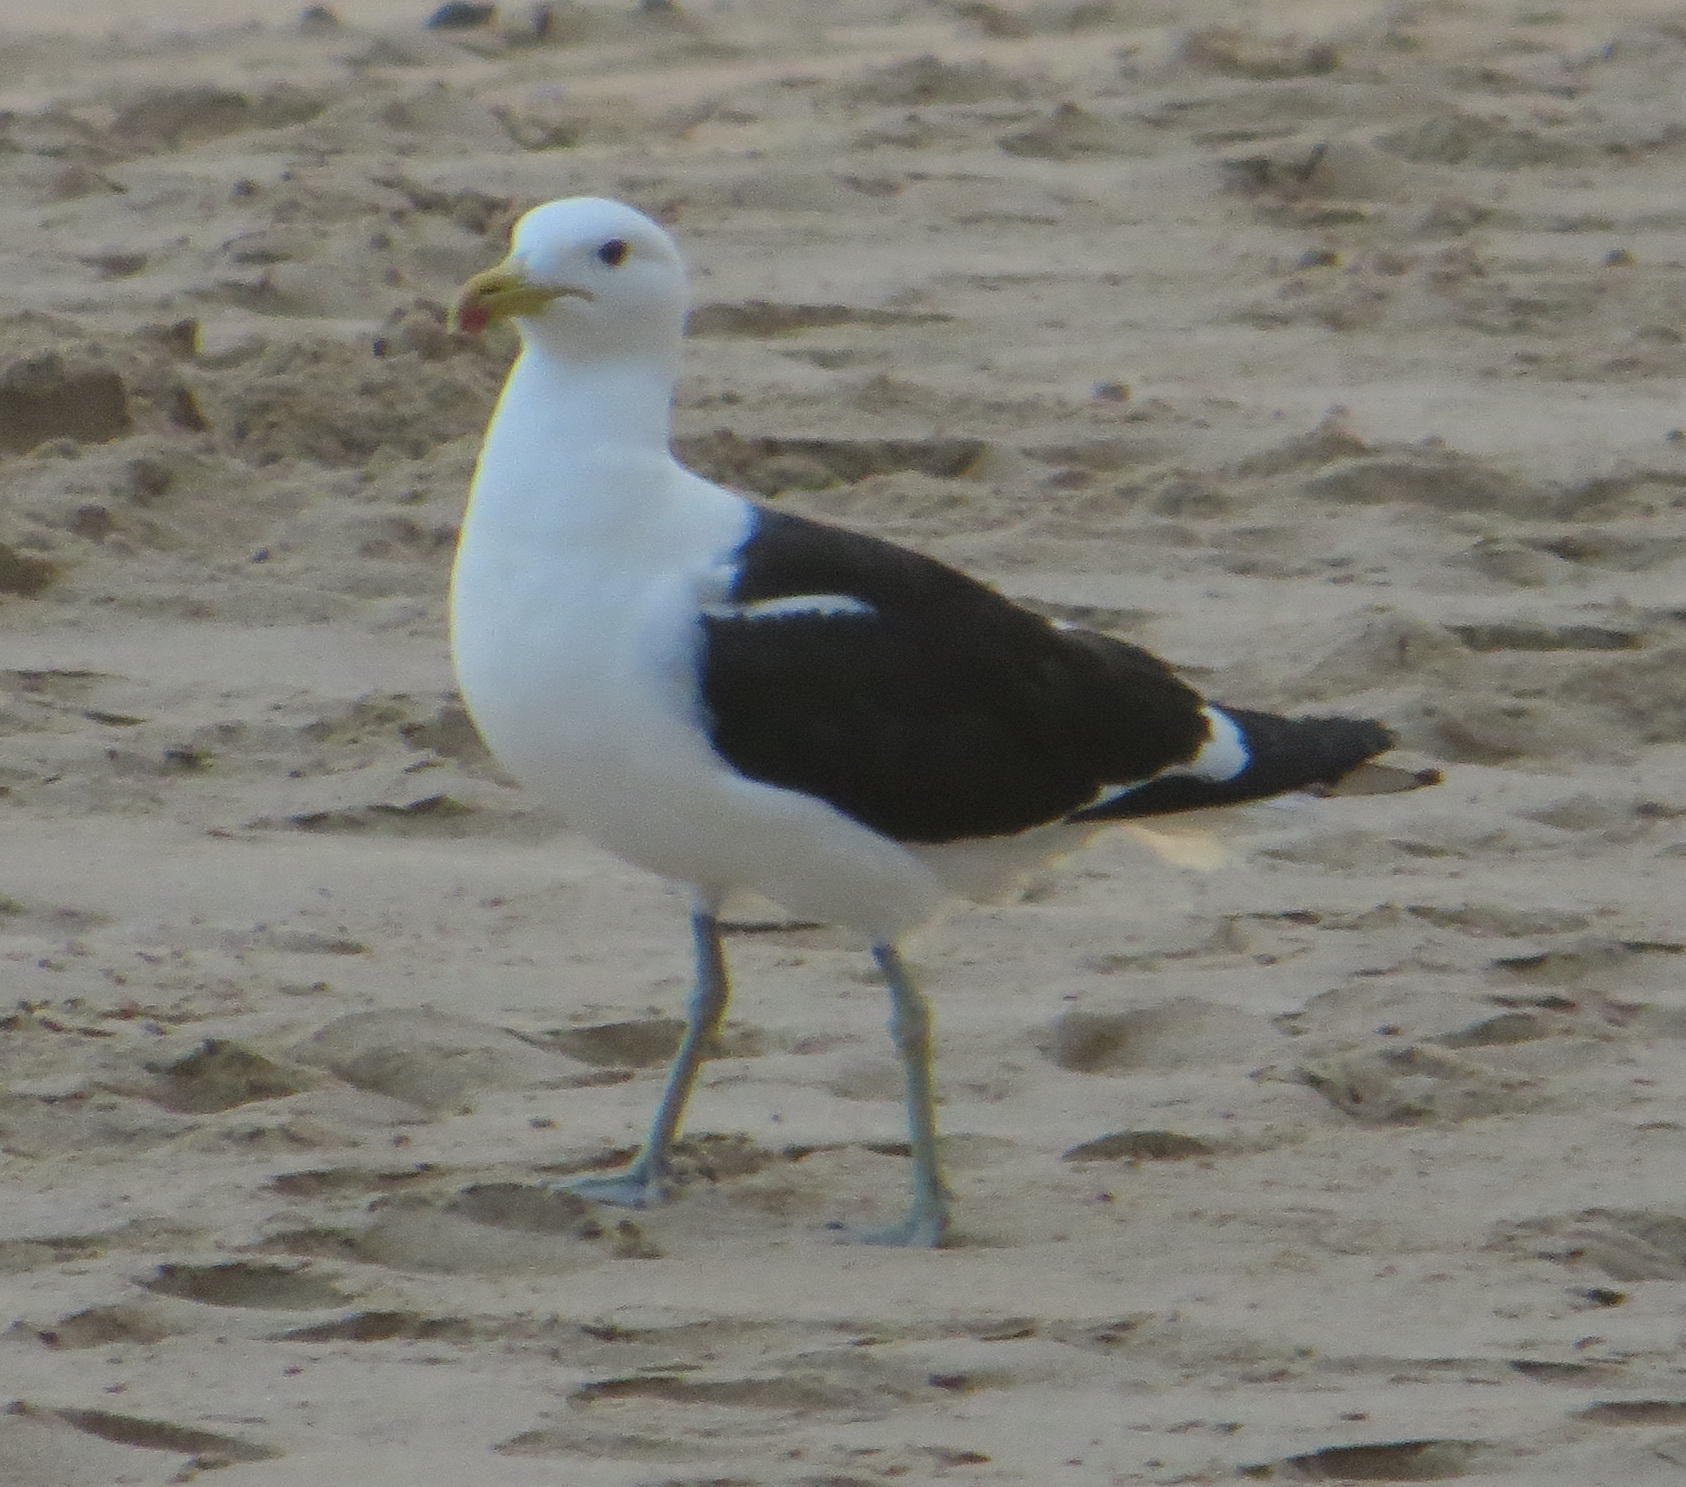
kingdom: Animalia
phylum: Chordata
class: Aves
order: Charadriiformes
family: Laridae
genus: Larus
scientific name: Larus dominicanus
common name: Kelp gull
